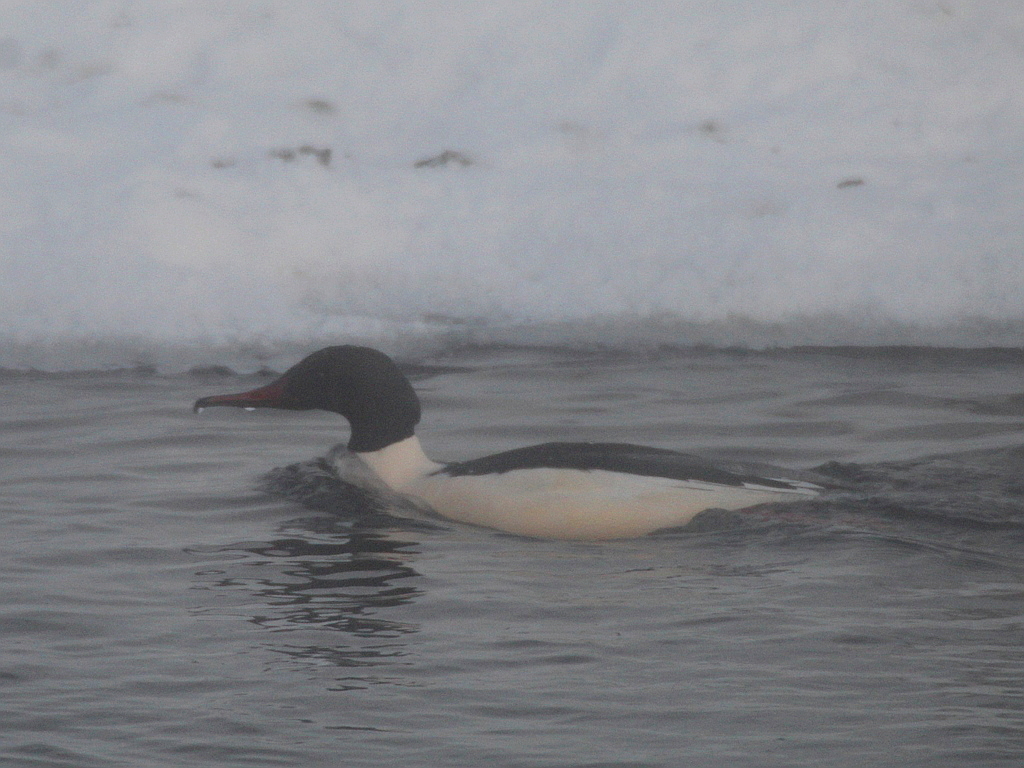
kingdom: Animalia
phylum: Chordata
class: Aves
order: Anseriformes
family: Anatidae
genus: Mergus
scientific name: Mergus merganser
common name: Common merganser
